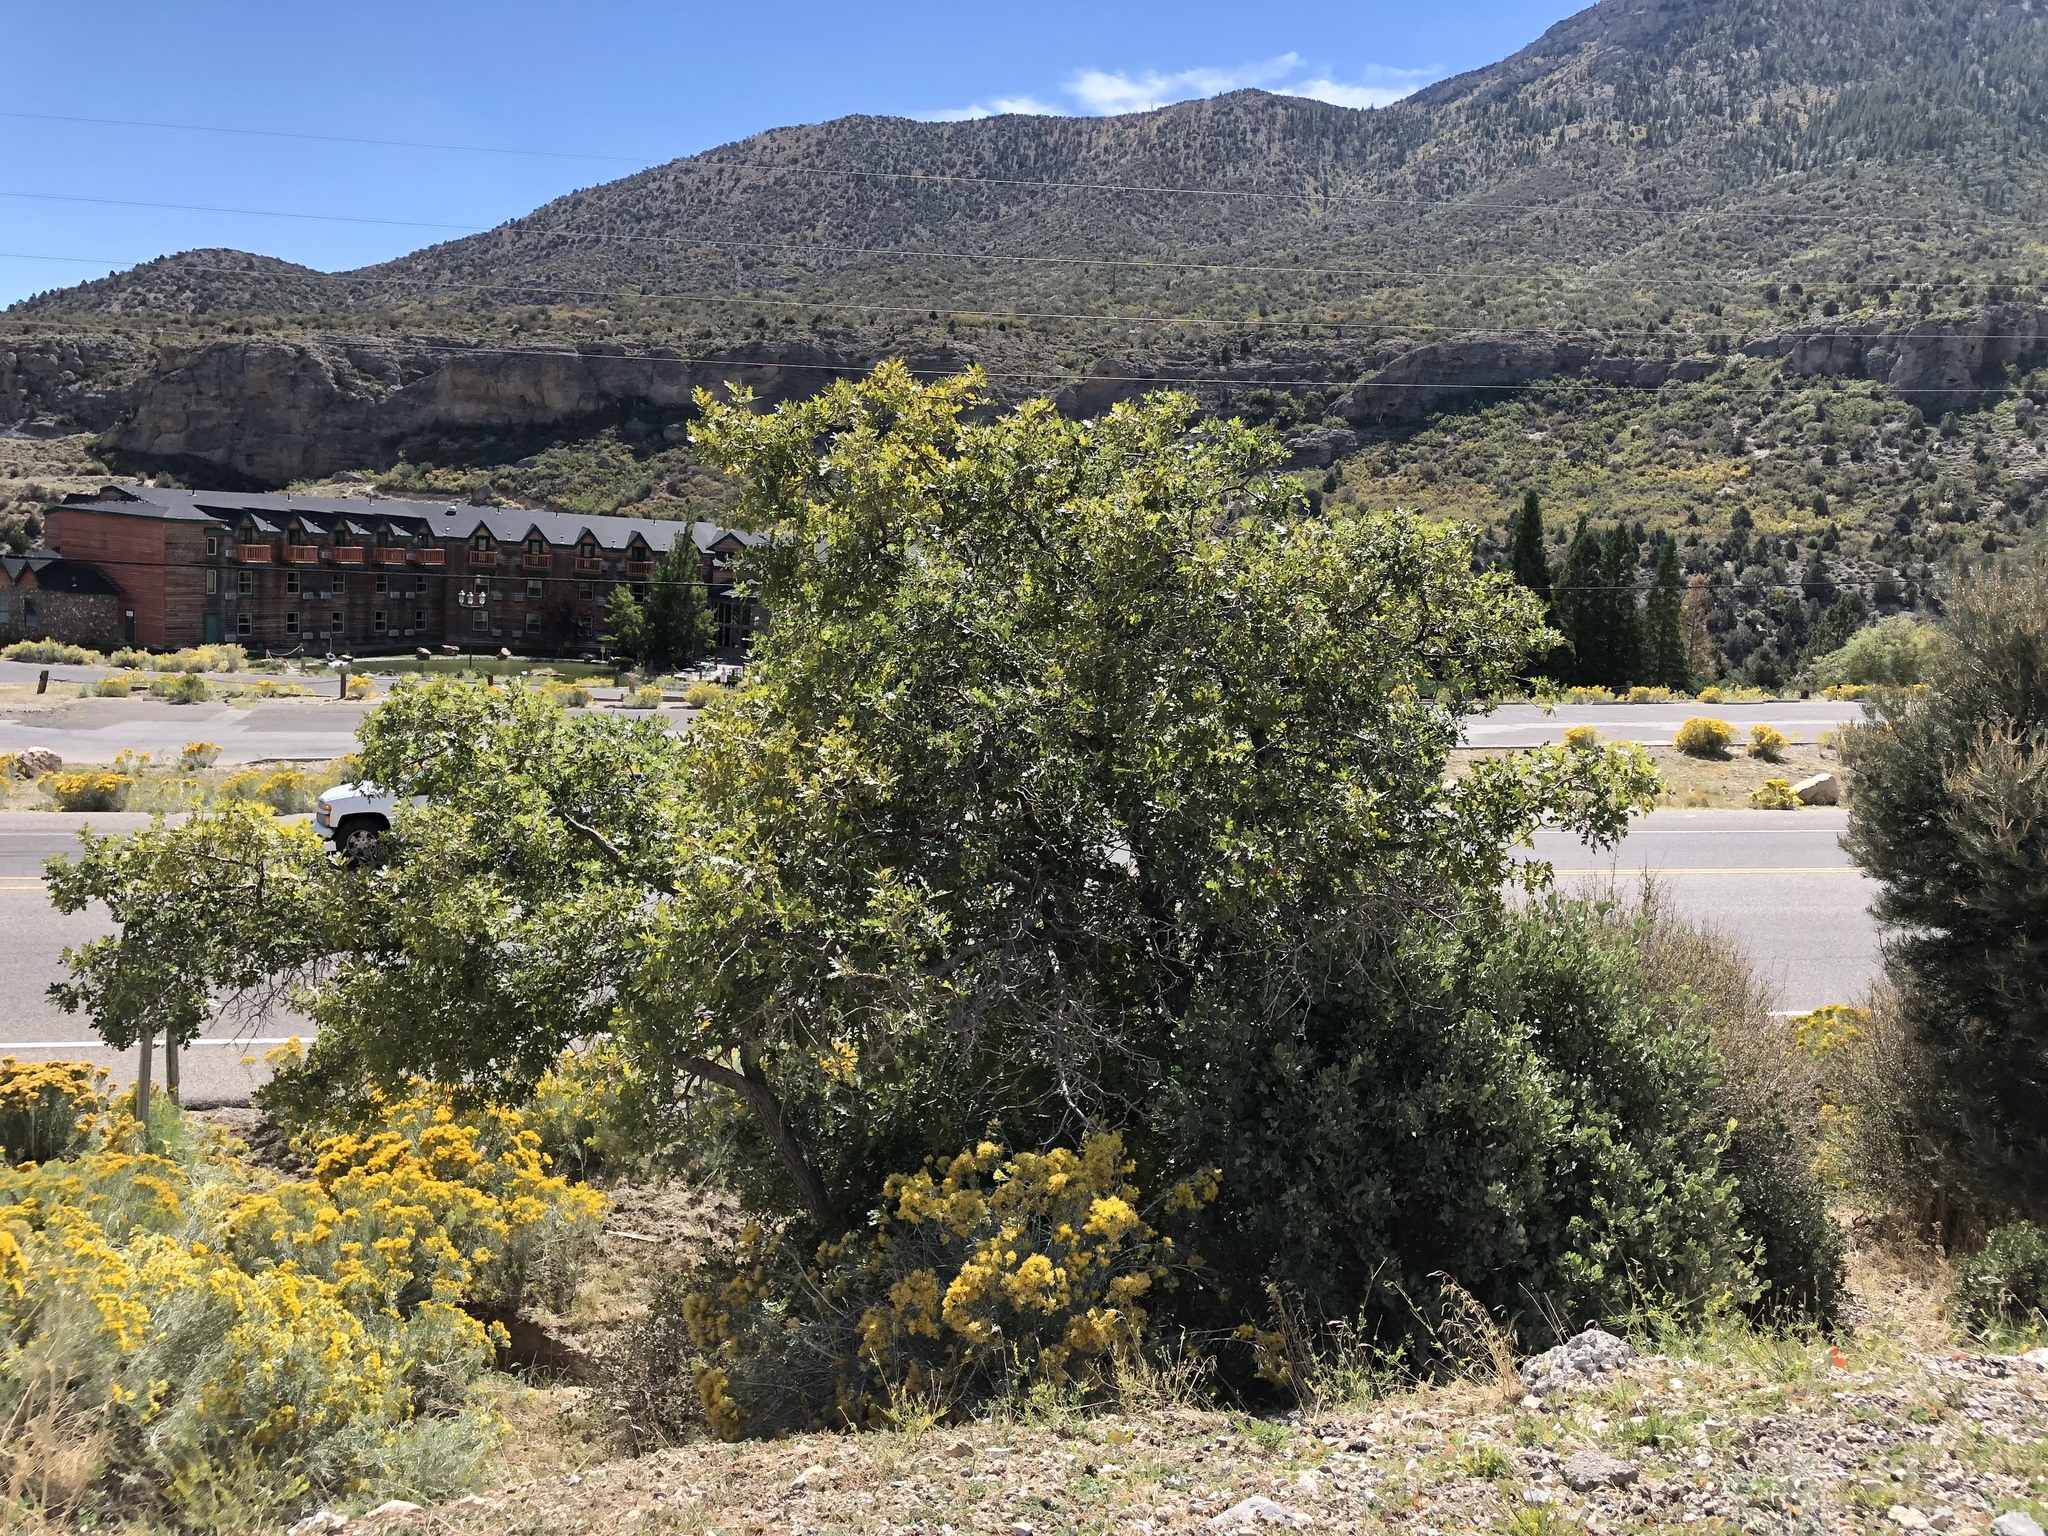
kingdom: Plantae
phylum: Tracheophyta
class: Magnoliopsida
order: Fagales
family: Fagaceae
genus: Quercus
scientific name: Quercus gambelii
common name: Gambel oak
